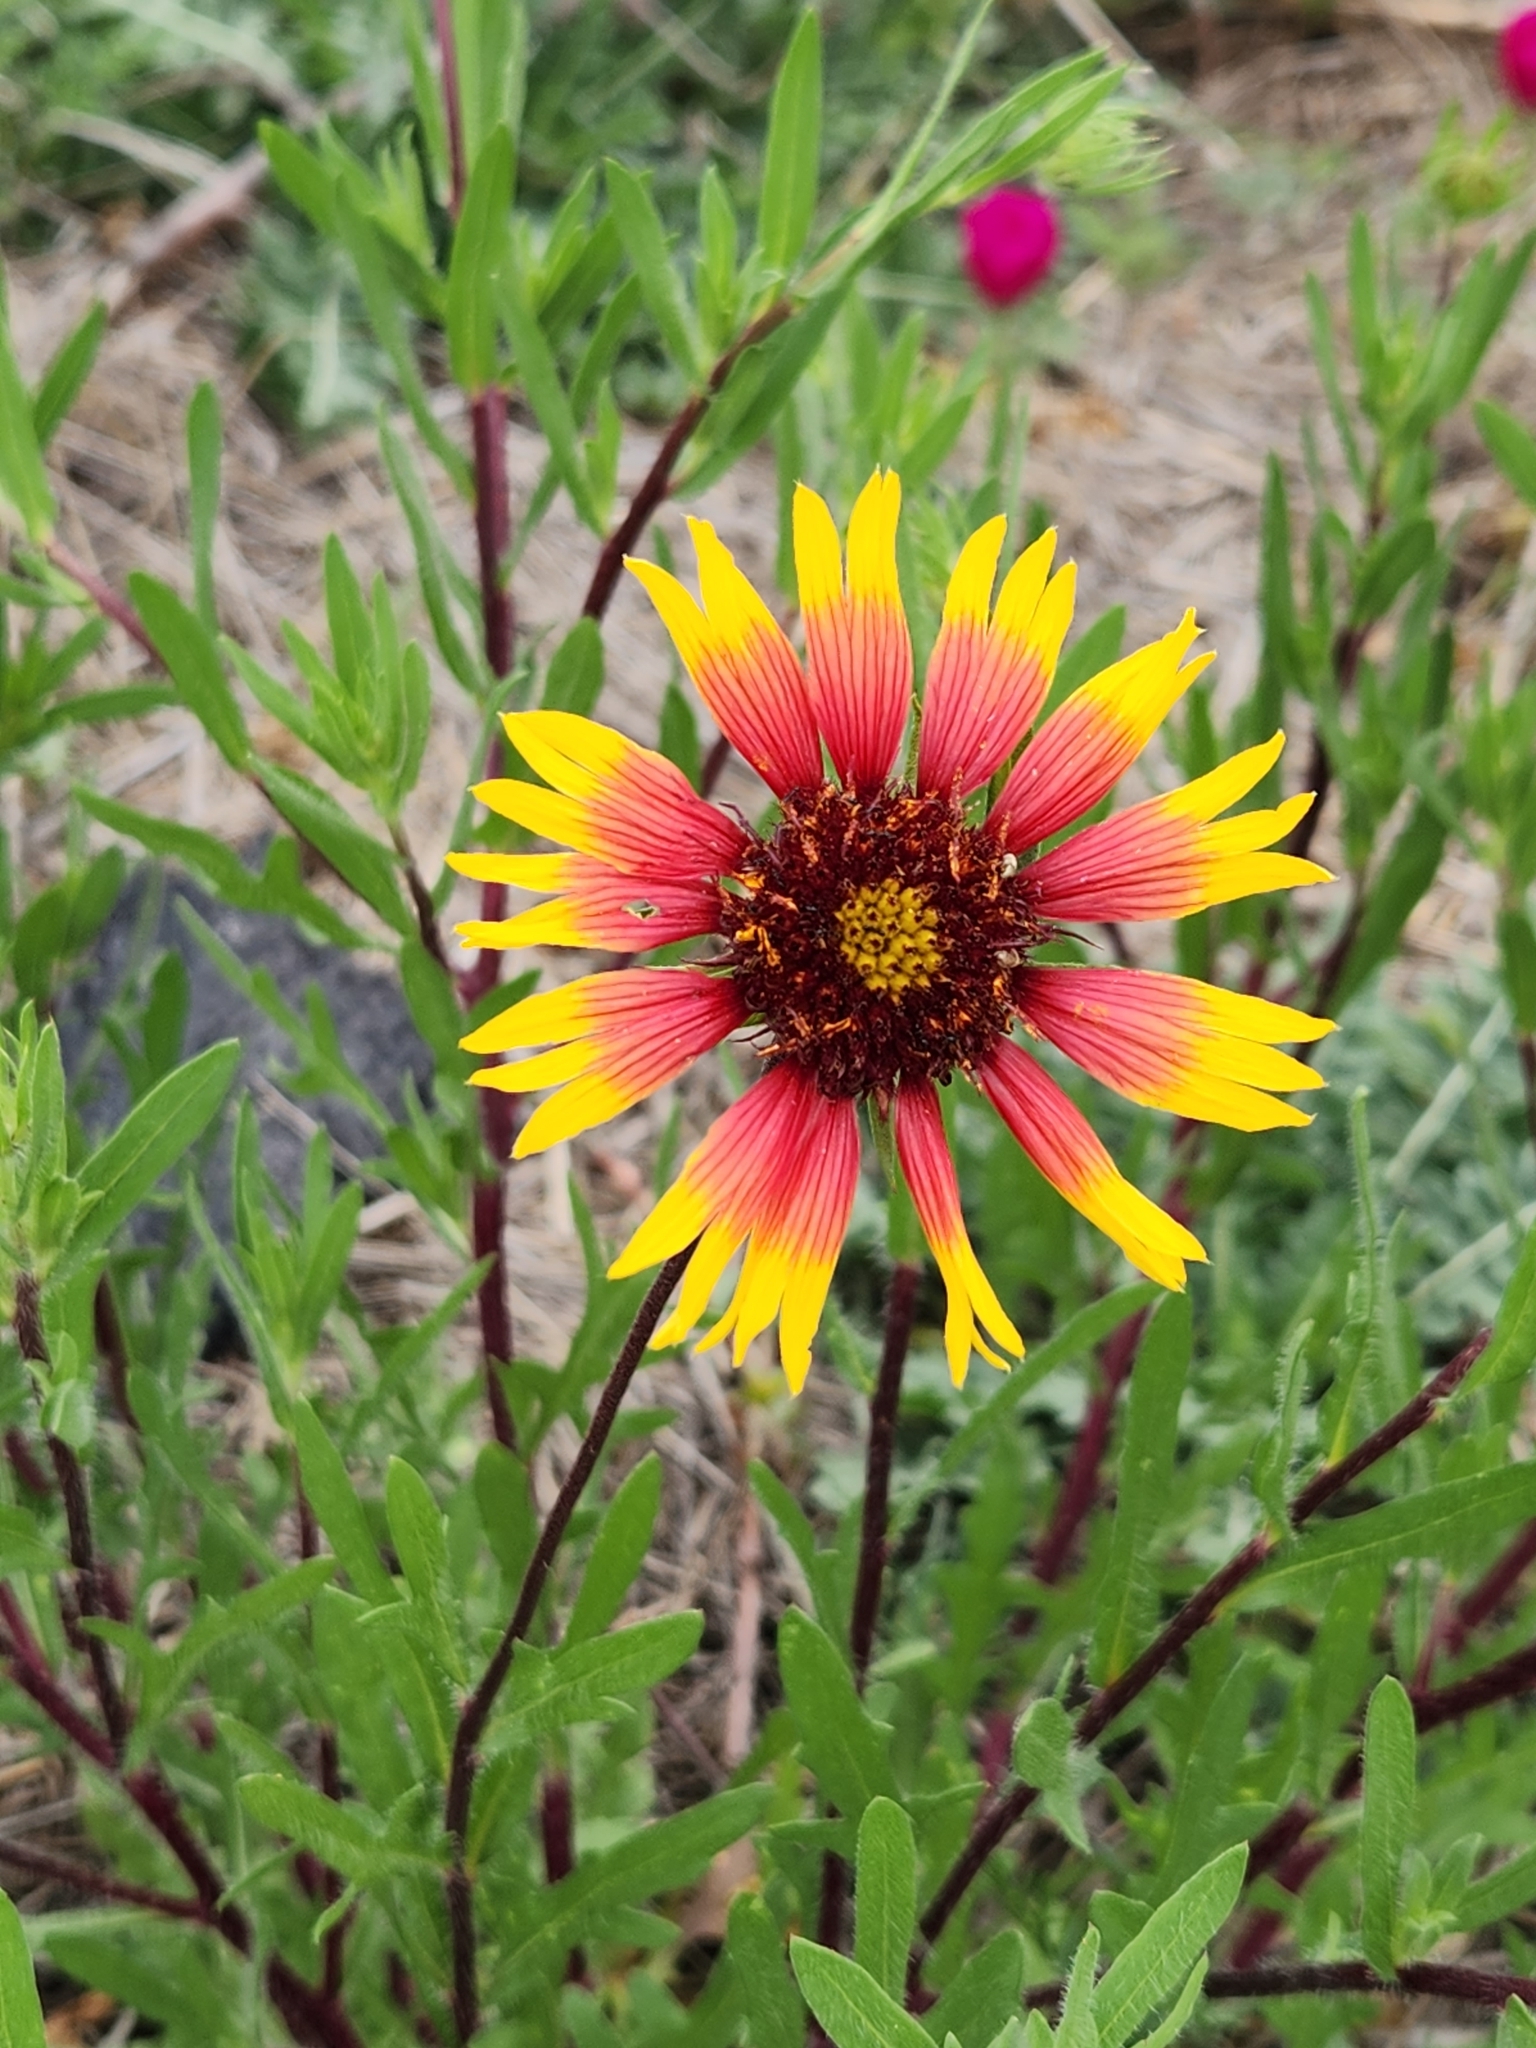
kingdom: Plantae
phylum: Tracheophyta
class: Magnoliopsida
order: Asterales
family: Asteraceae
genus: Gaillardia
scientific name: Gaillardia pulchella
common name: Firewheel
